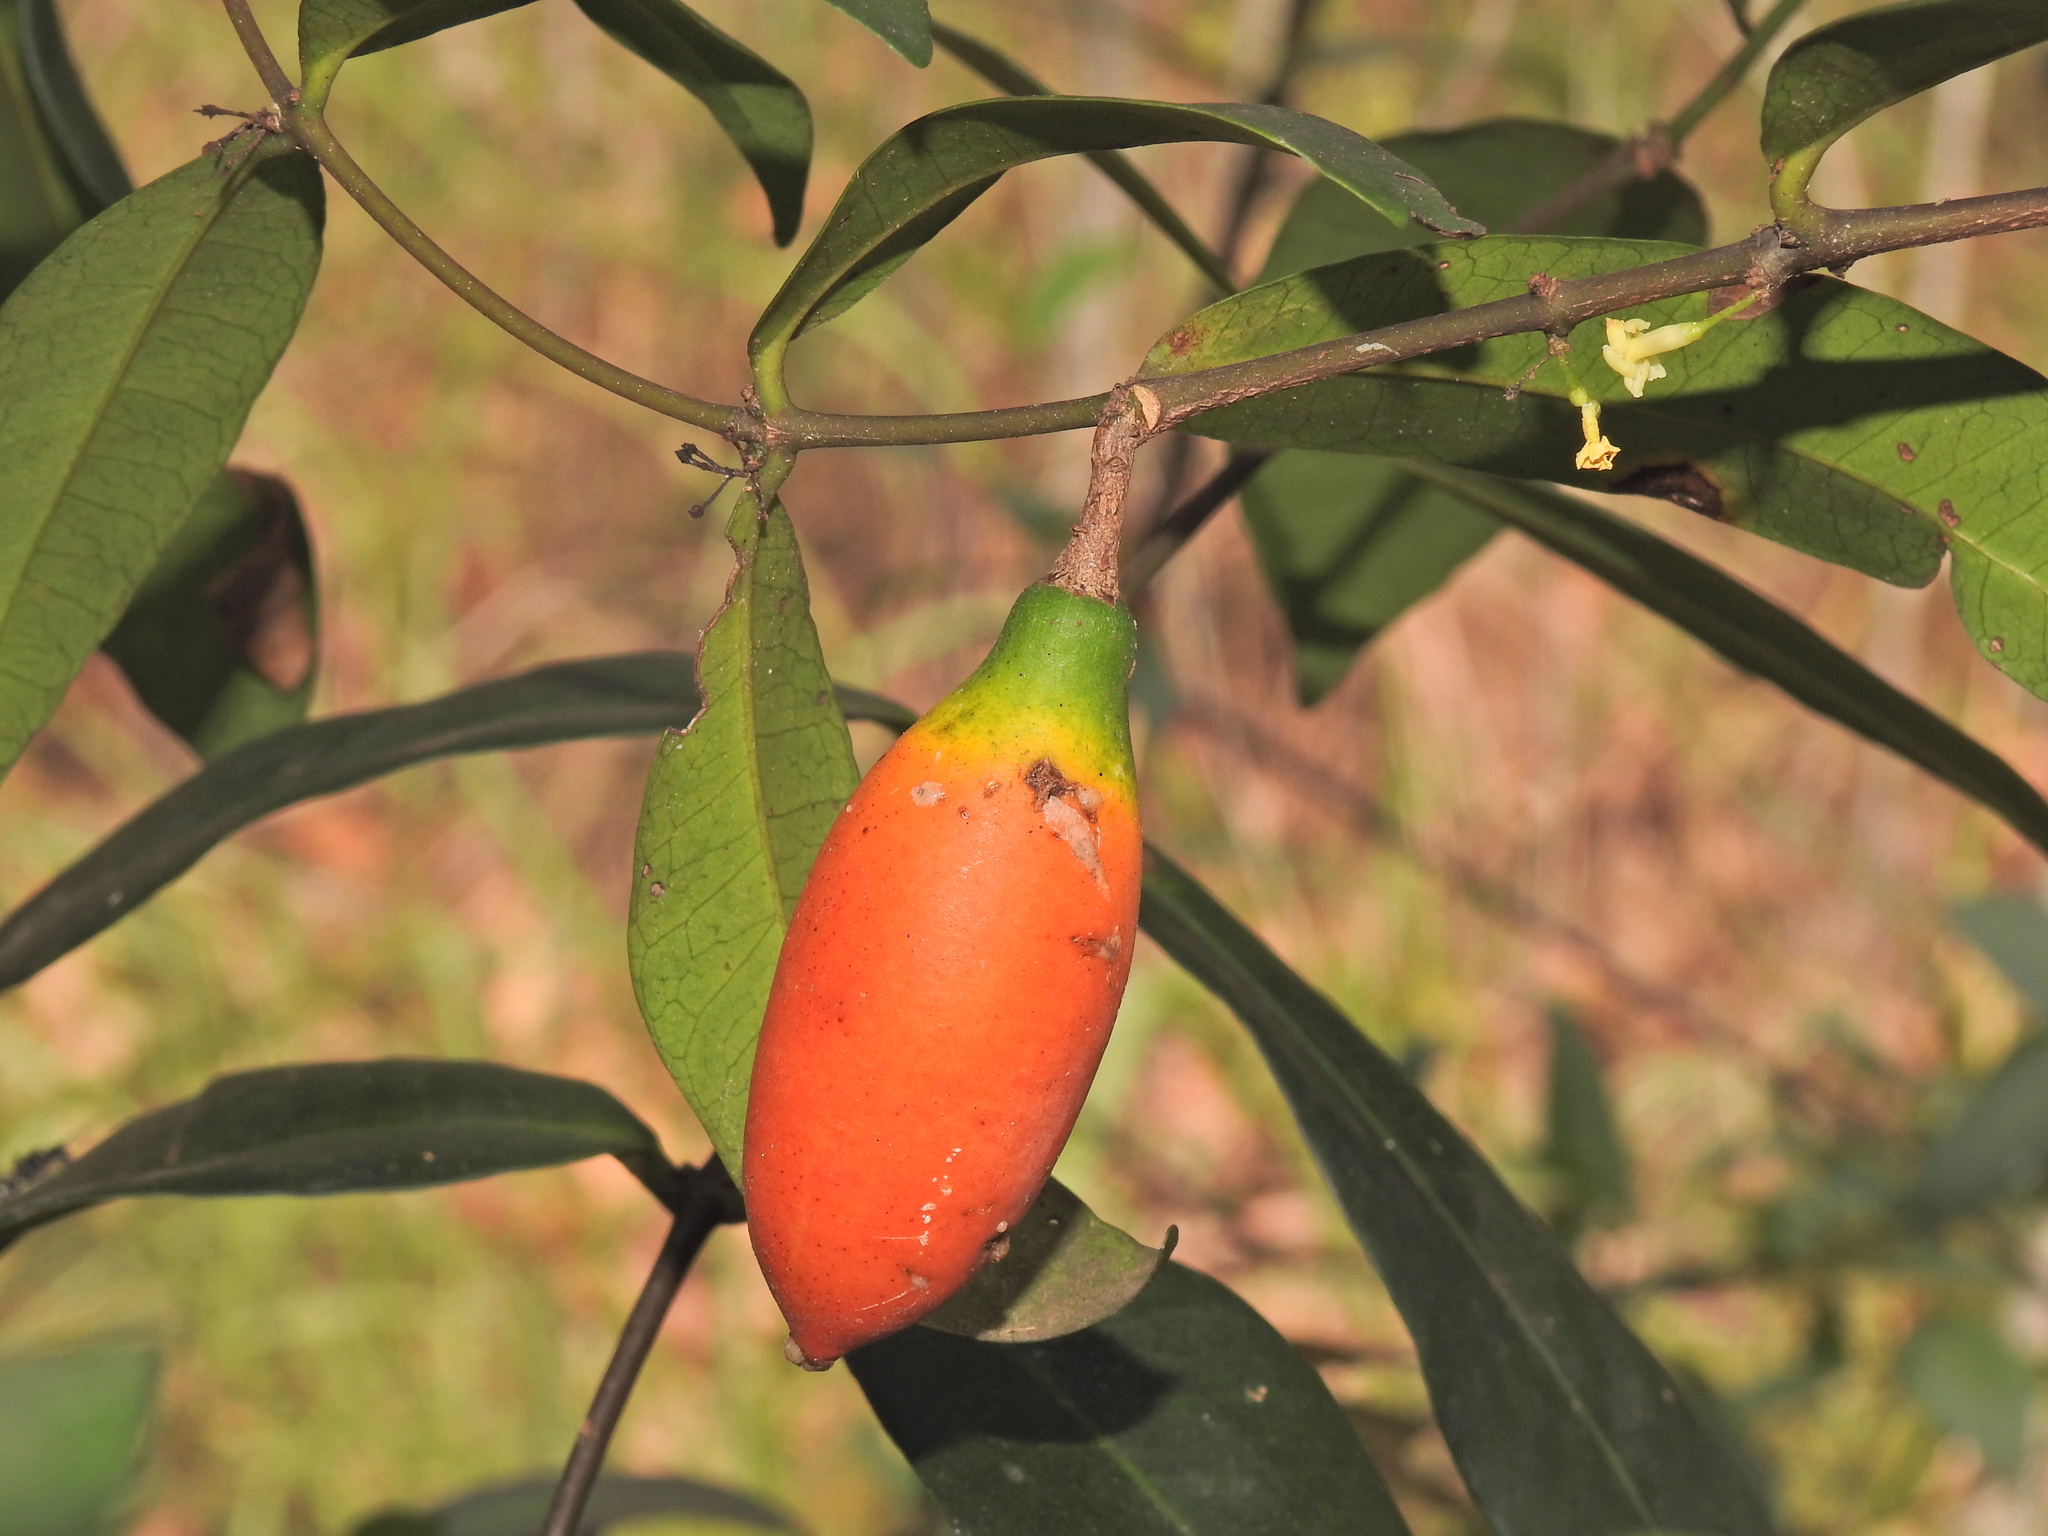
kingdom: Plantae
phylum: Tracheophyta
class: Magnoliopsida
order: Gentianales
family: Apocynaceae
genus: Melodinus
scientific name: Melodinus australis
